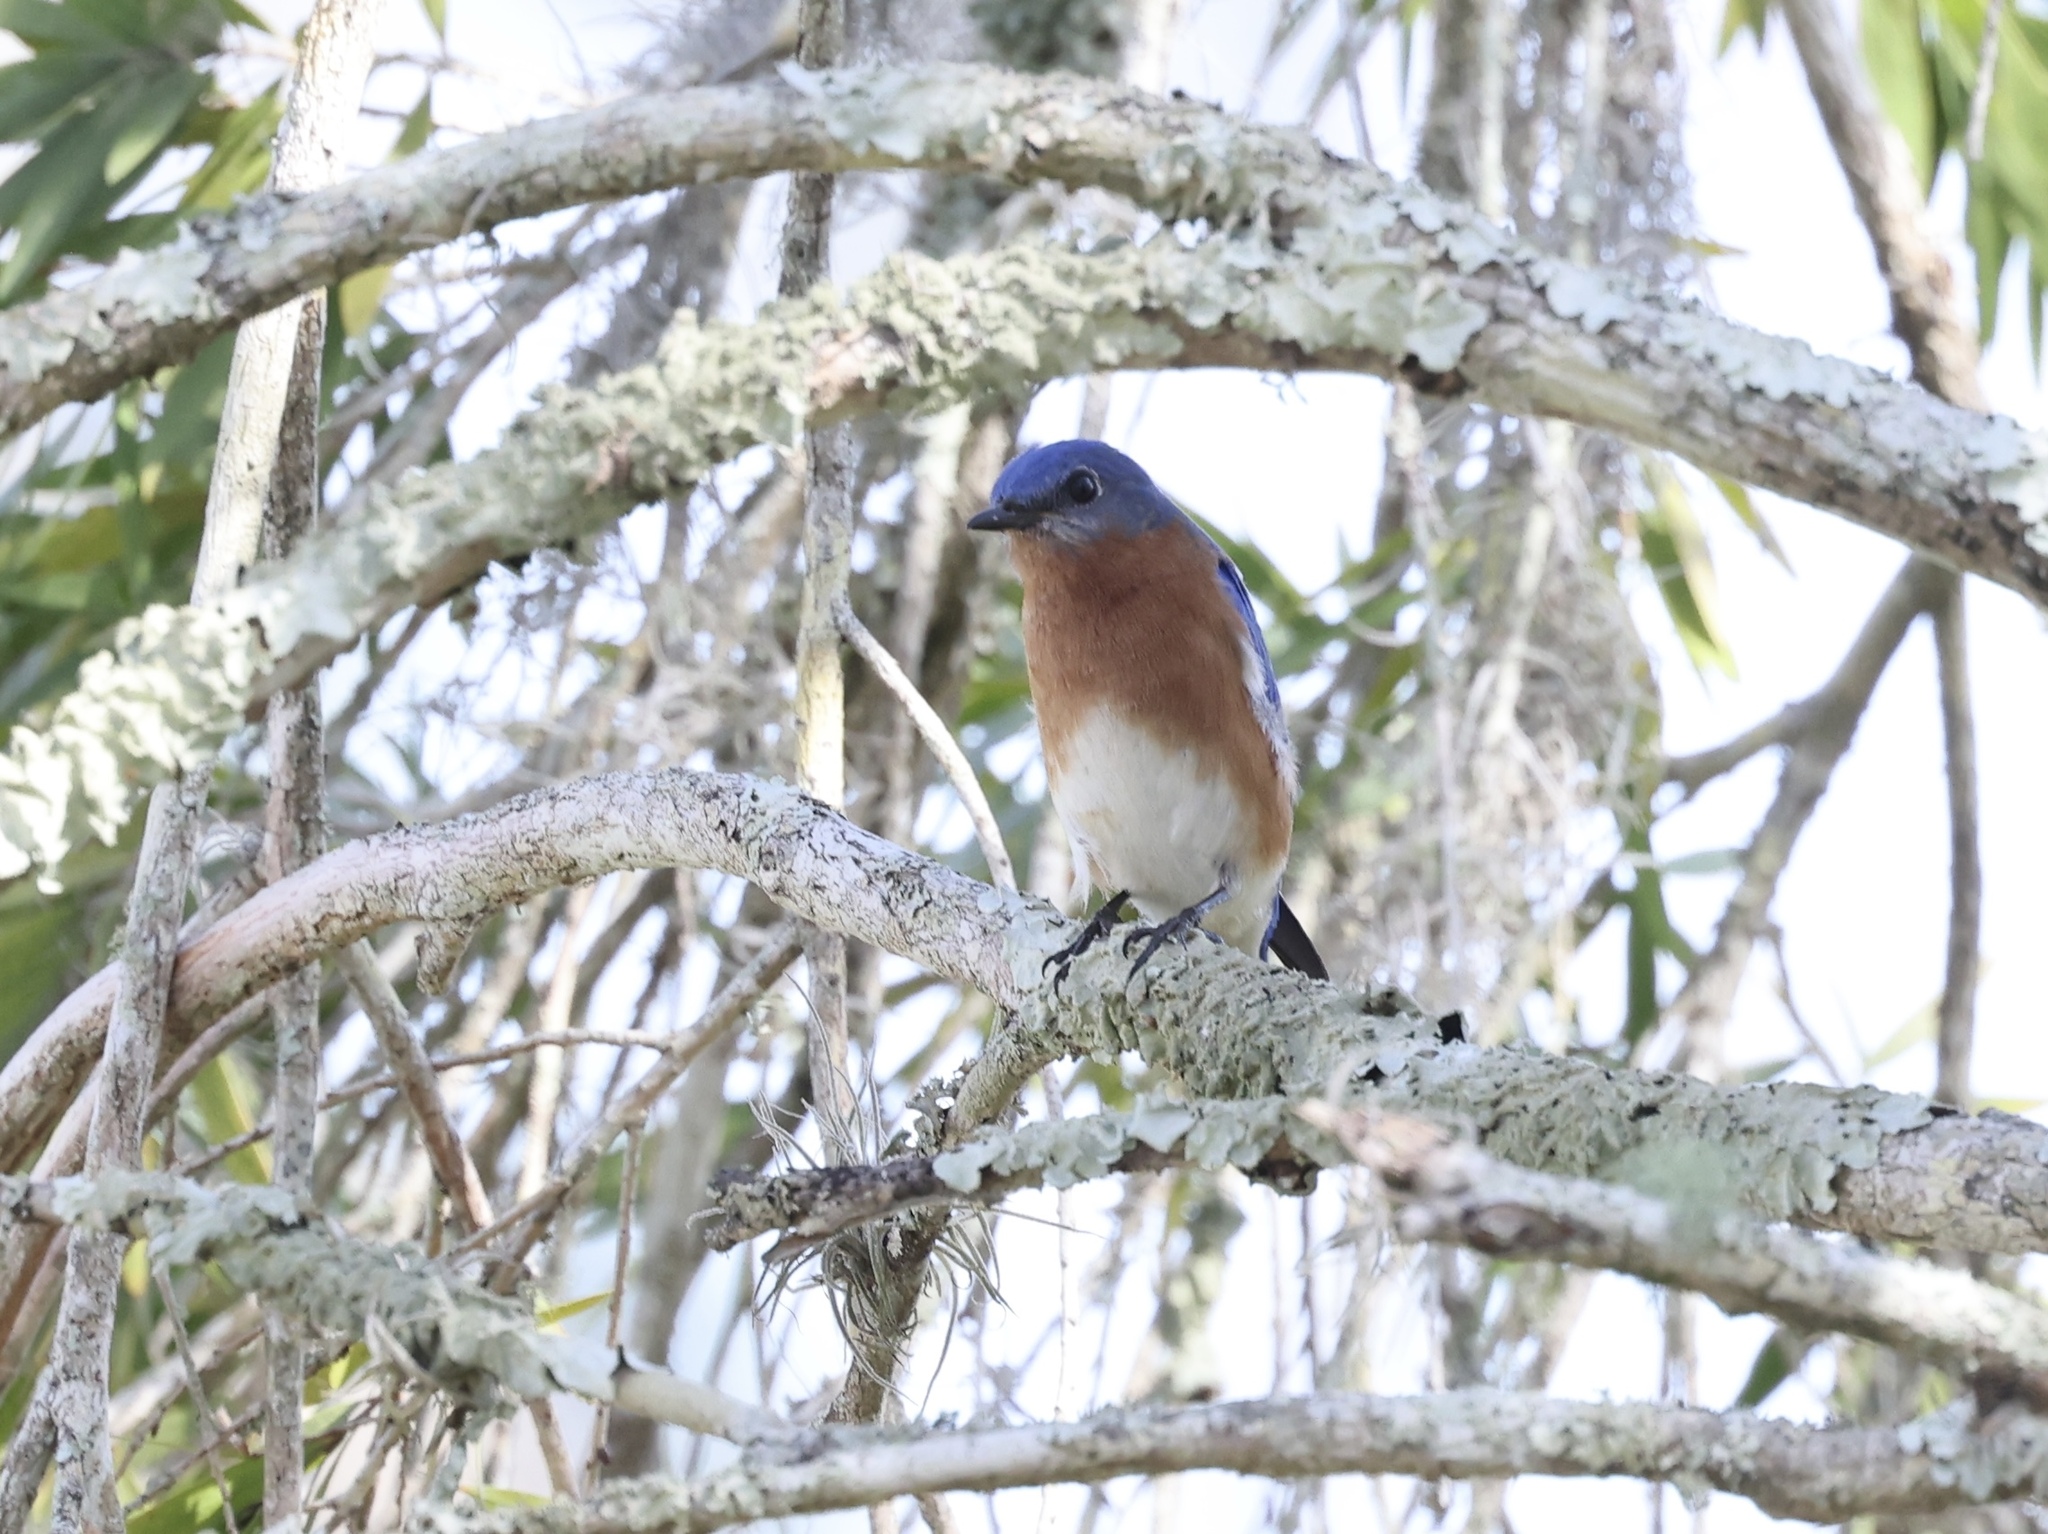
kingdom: Animalia
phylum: Chordata
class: Aves
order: Passeriformes
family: Turdidae
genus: Sialia
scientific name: Sialia sialis
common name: Eastern bluebird
